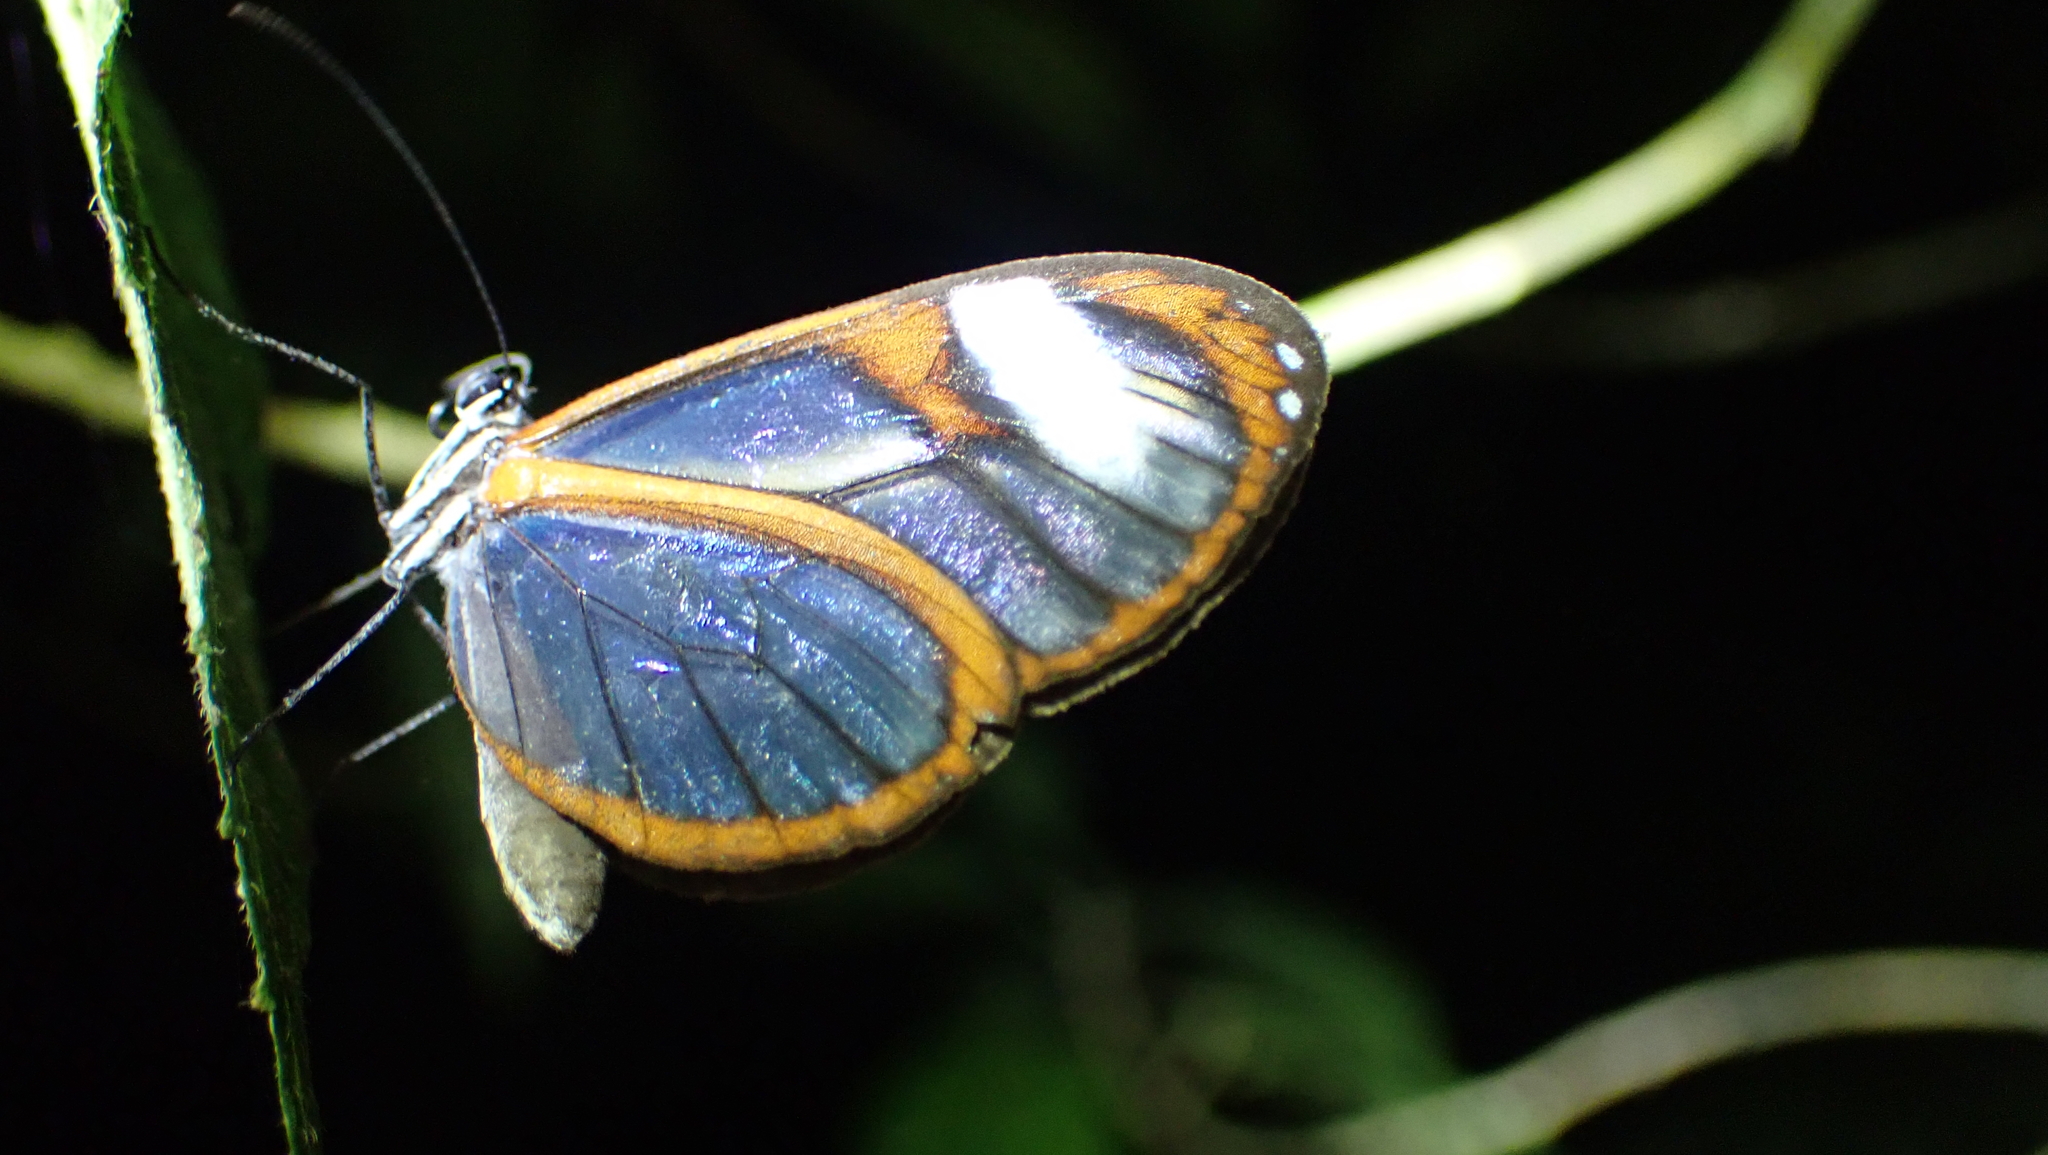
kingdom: Animalia
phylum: Arthropoda
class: Insecta
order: Lepidoptera
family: Nymphalidae
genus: Pteronymia
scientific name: Pteronymia cotytto
